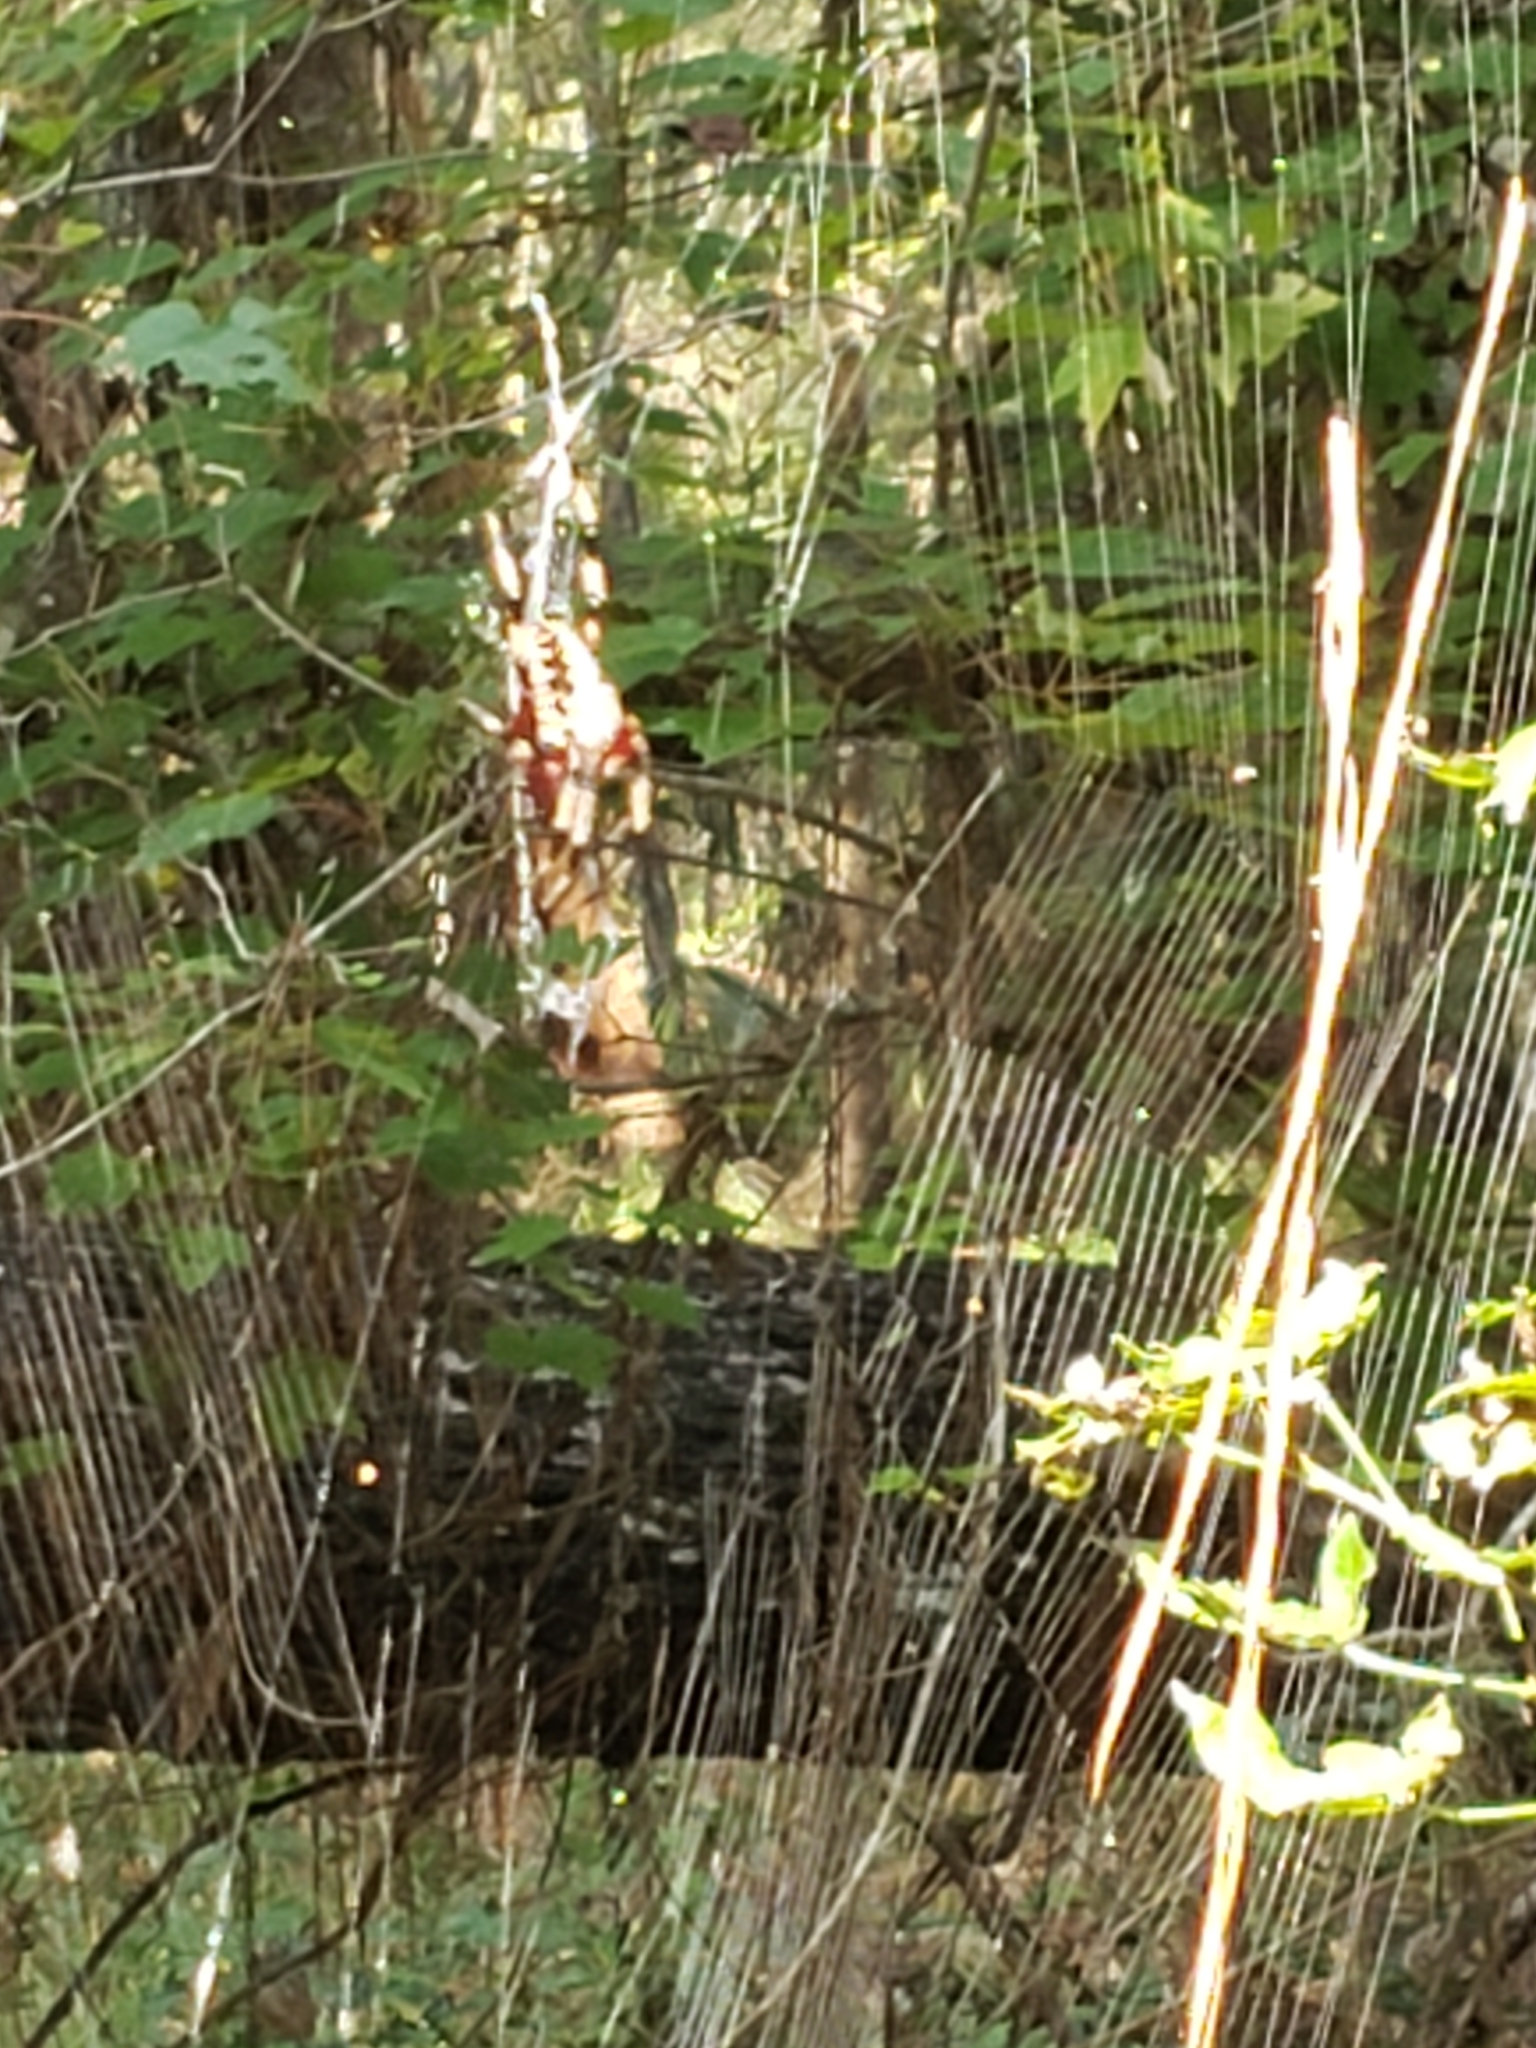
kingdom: Animalia
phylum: Arthropoda
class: Arachnida
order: Araneae
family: Araneidae
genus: Neoscona
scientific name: Neoscona domiciliorum
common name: Red-femured spotted orbweaver
